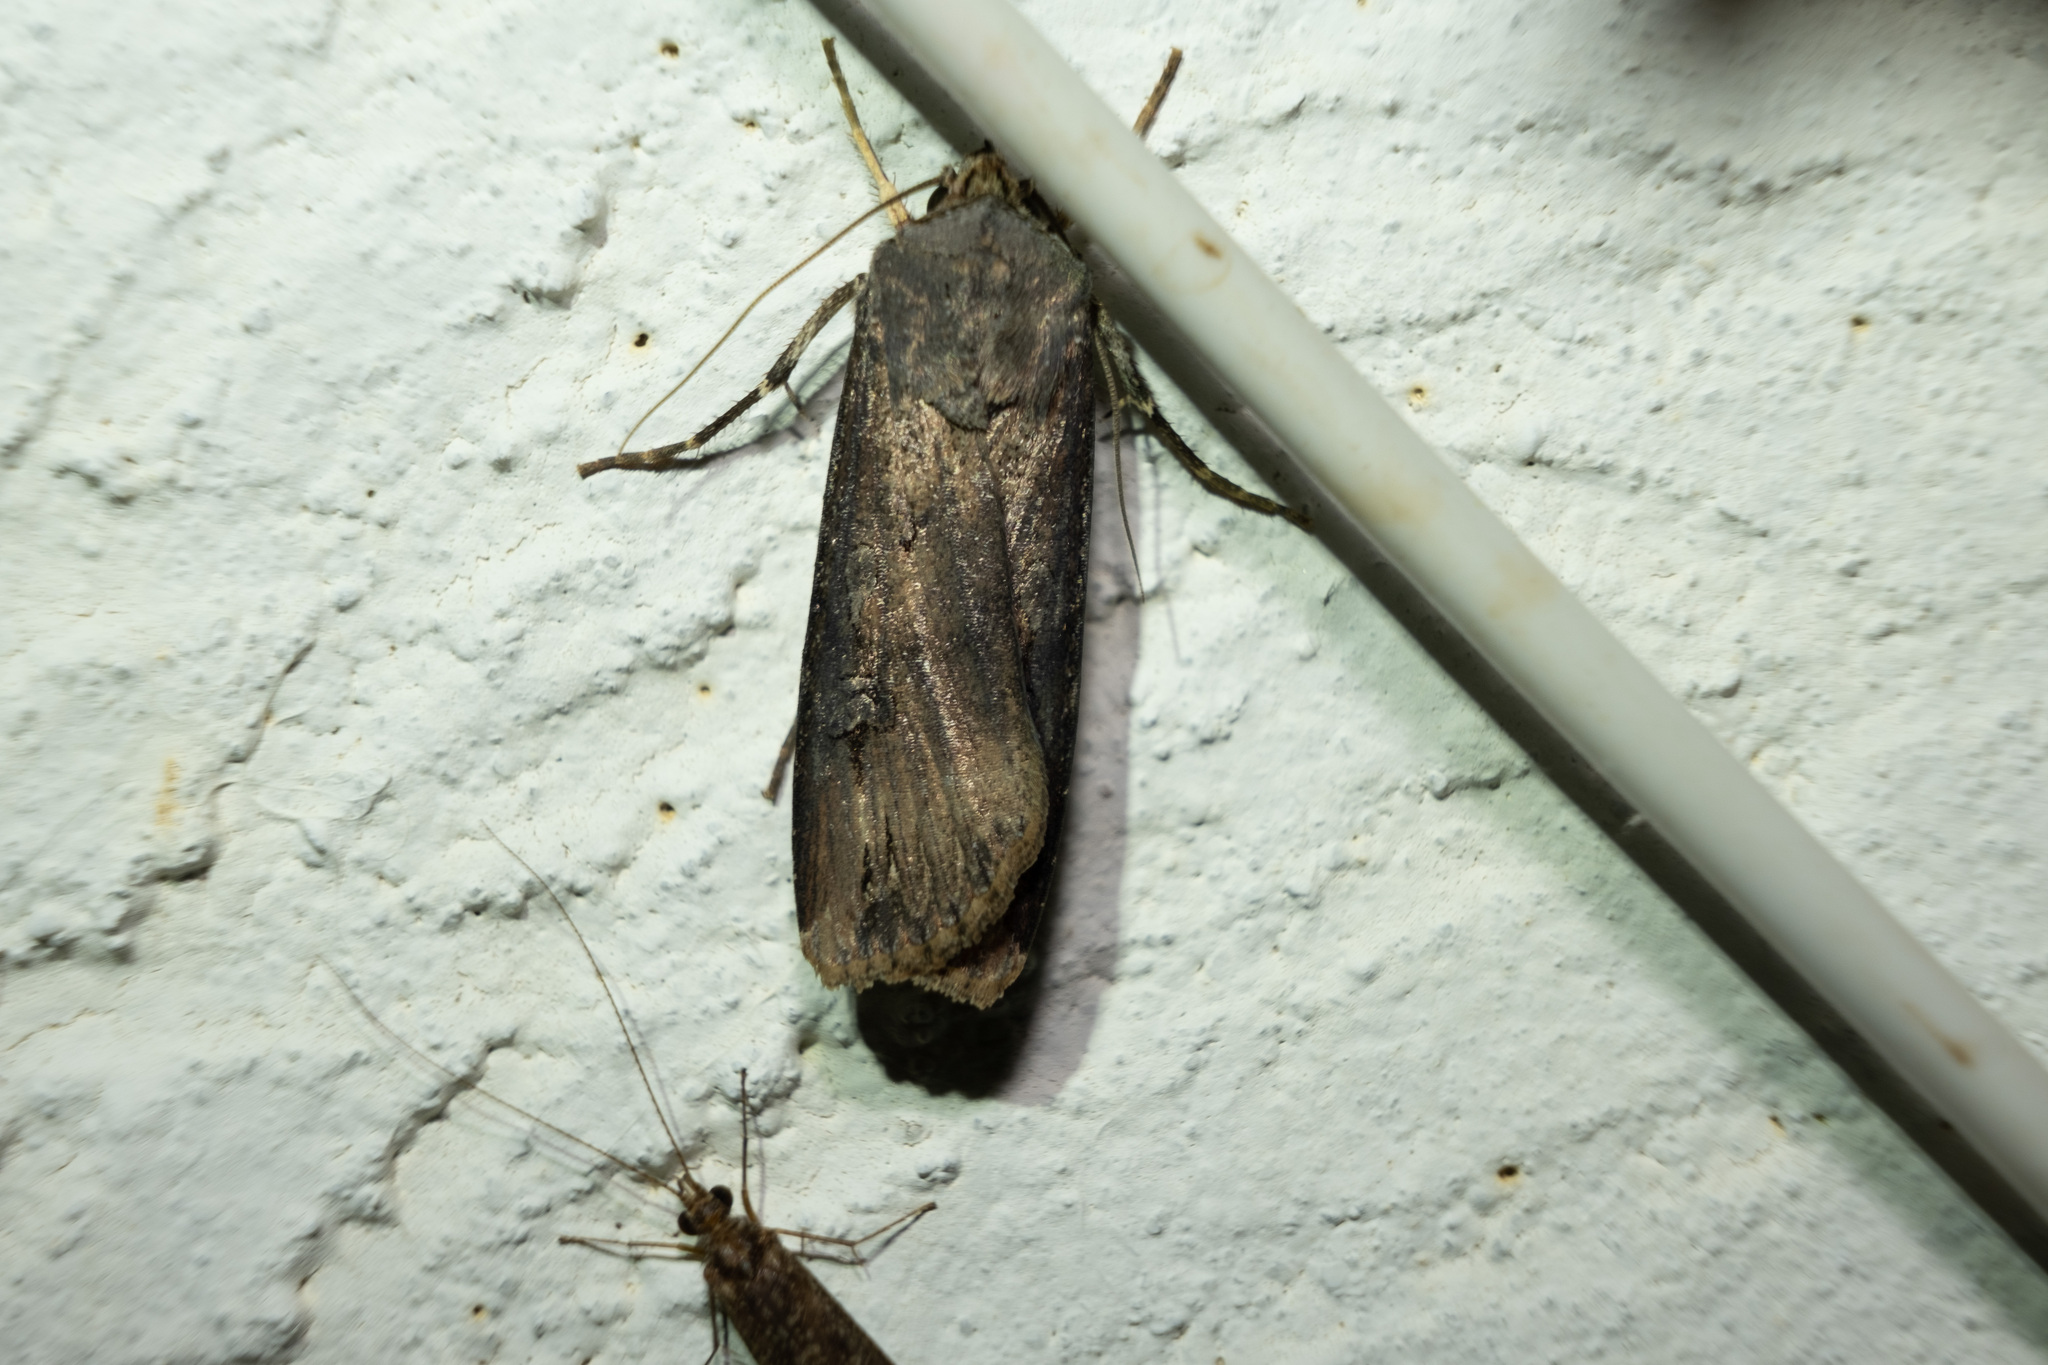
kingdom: Animalia
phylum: Arthropoda
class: Insecta
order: Lepidoptera
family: Noctuidae
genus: Agrotis
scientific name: Agrotis ipsilon
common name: Dark sword-grass
